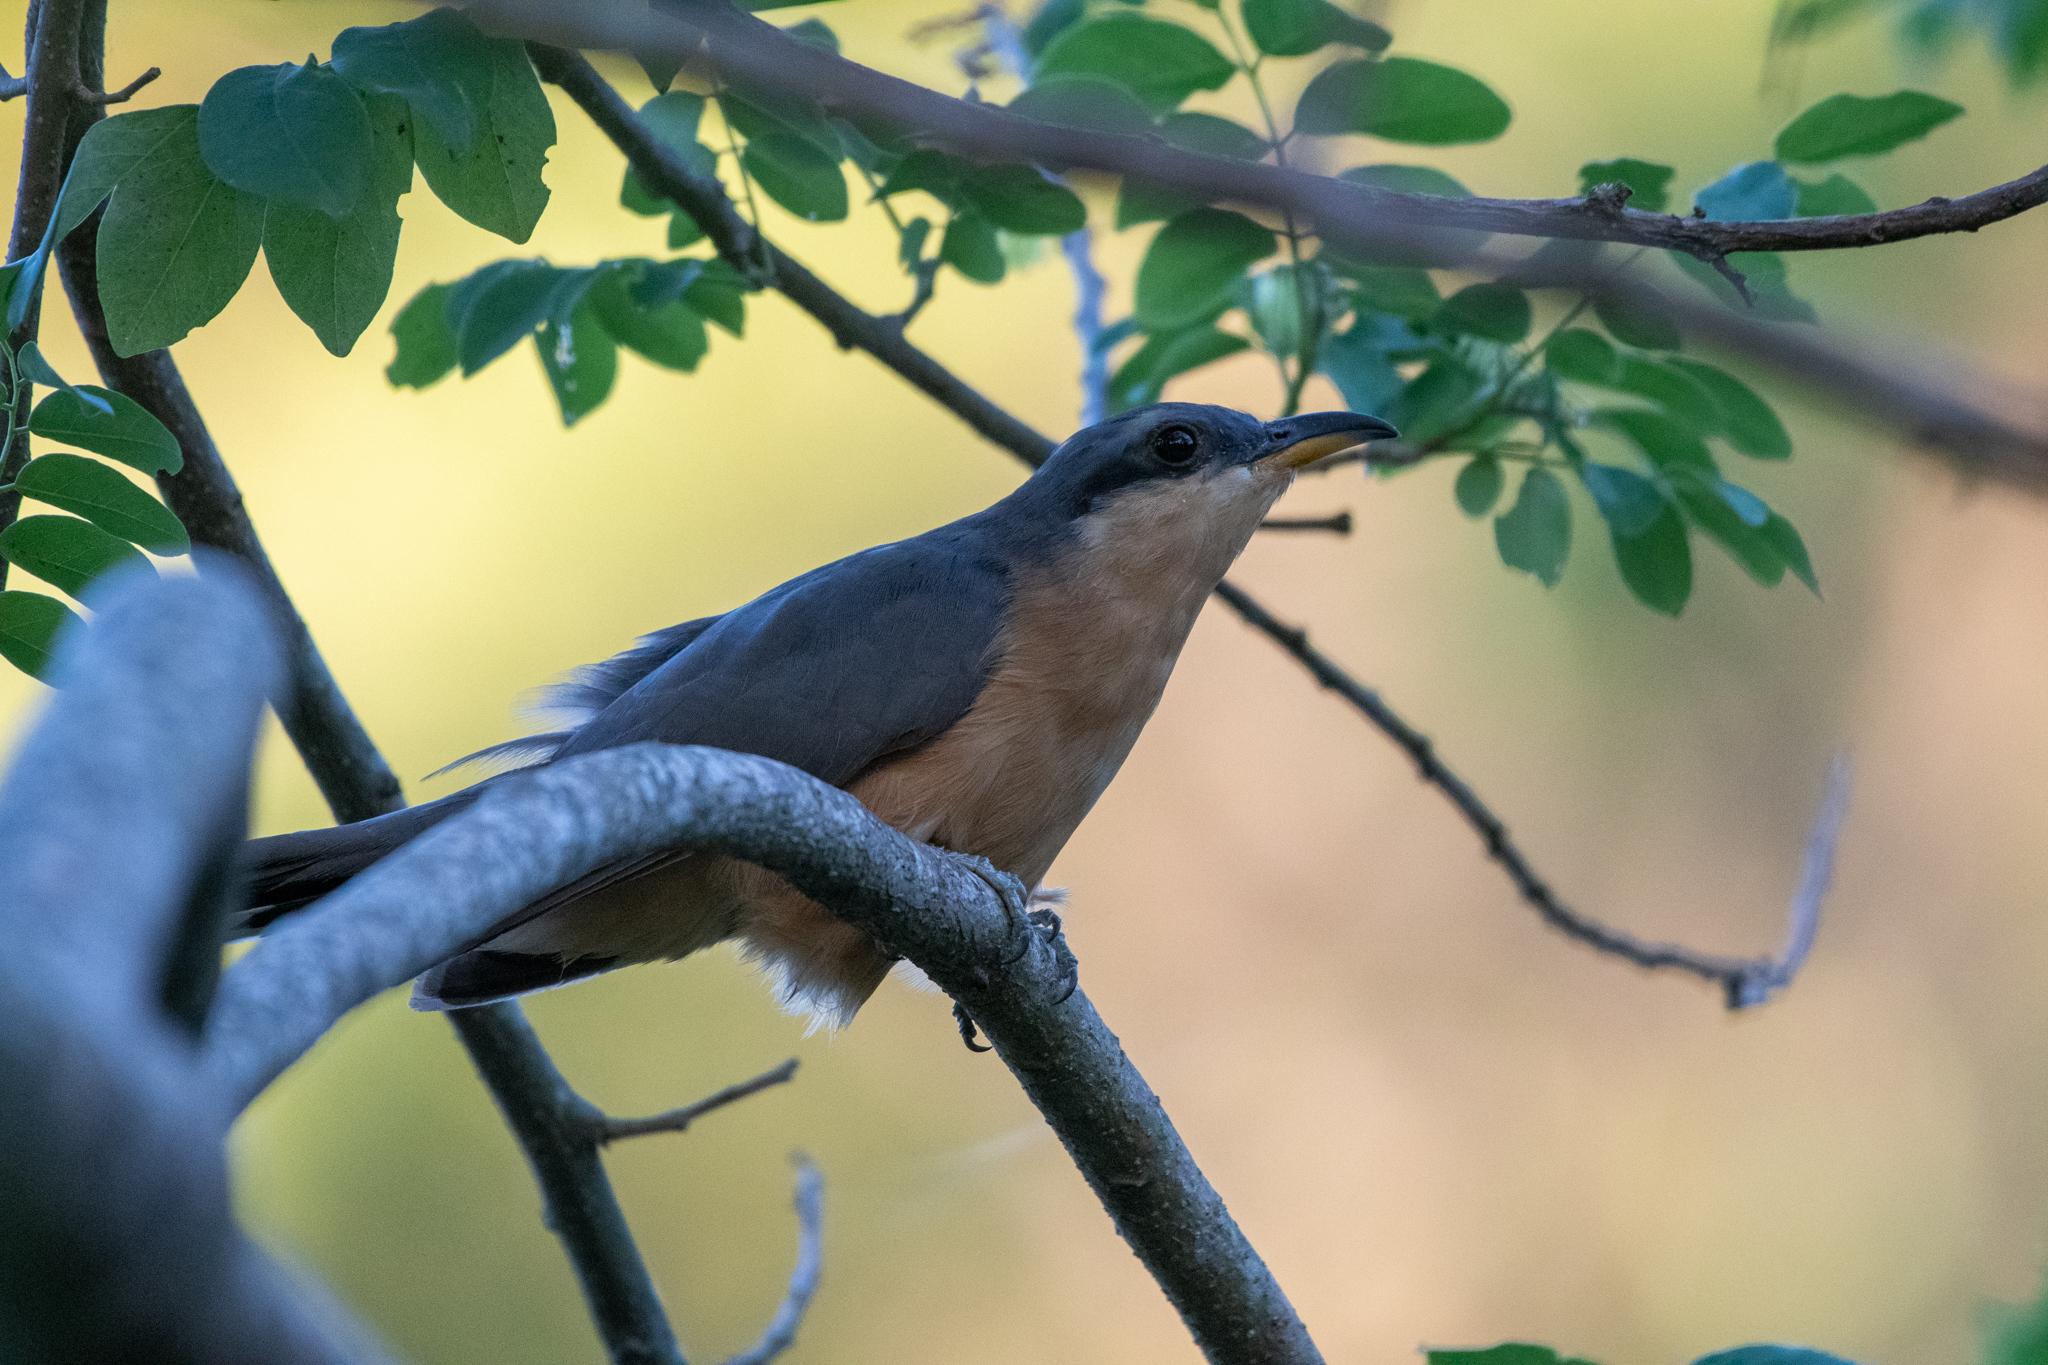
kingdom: Animalia
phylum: Chordata
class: Aves
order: Cuculiformes
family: Cuculidae
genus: Coccyzus
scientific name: Coccyzus minor
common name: Mangrove cuckoo
